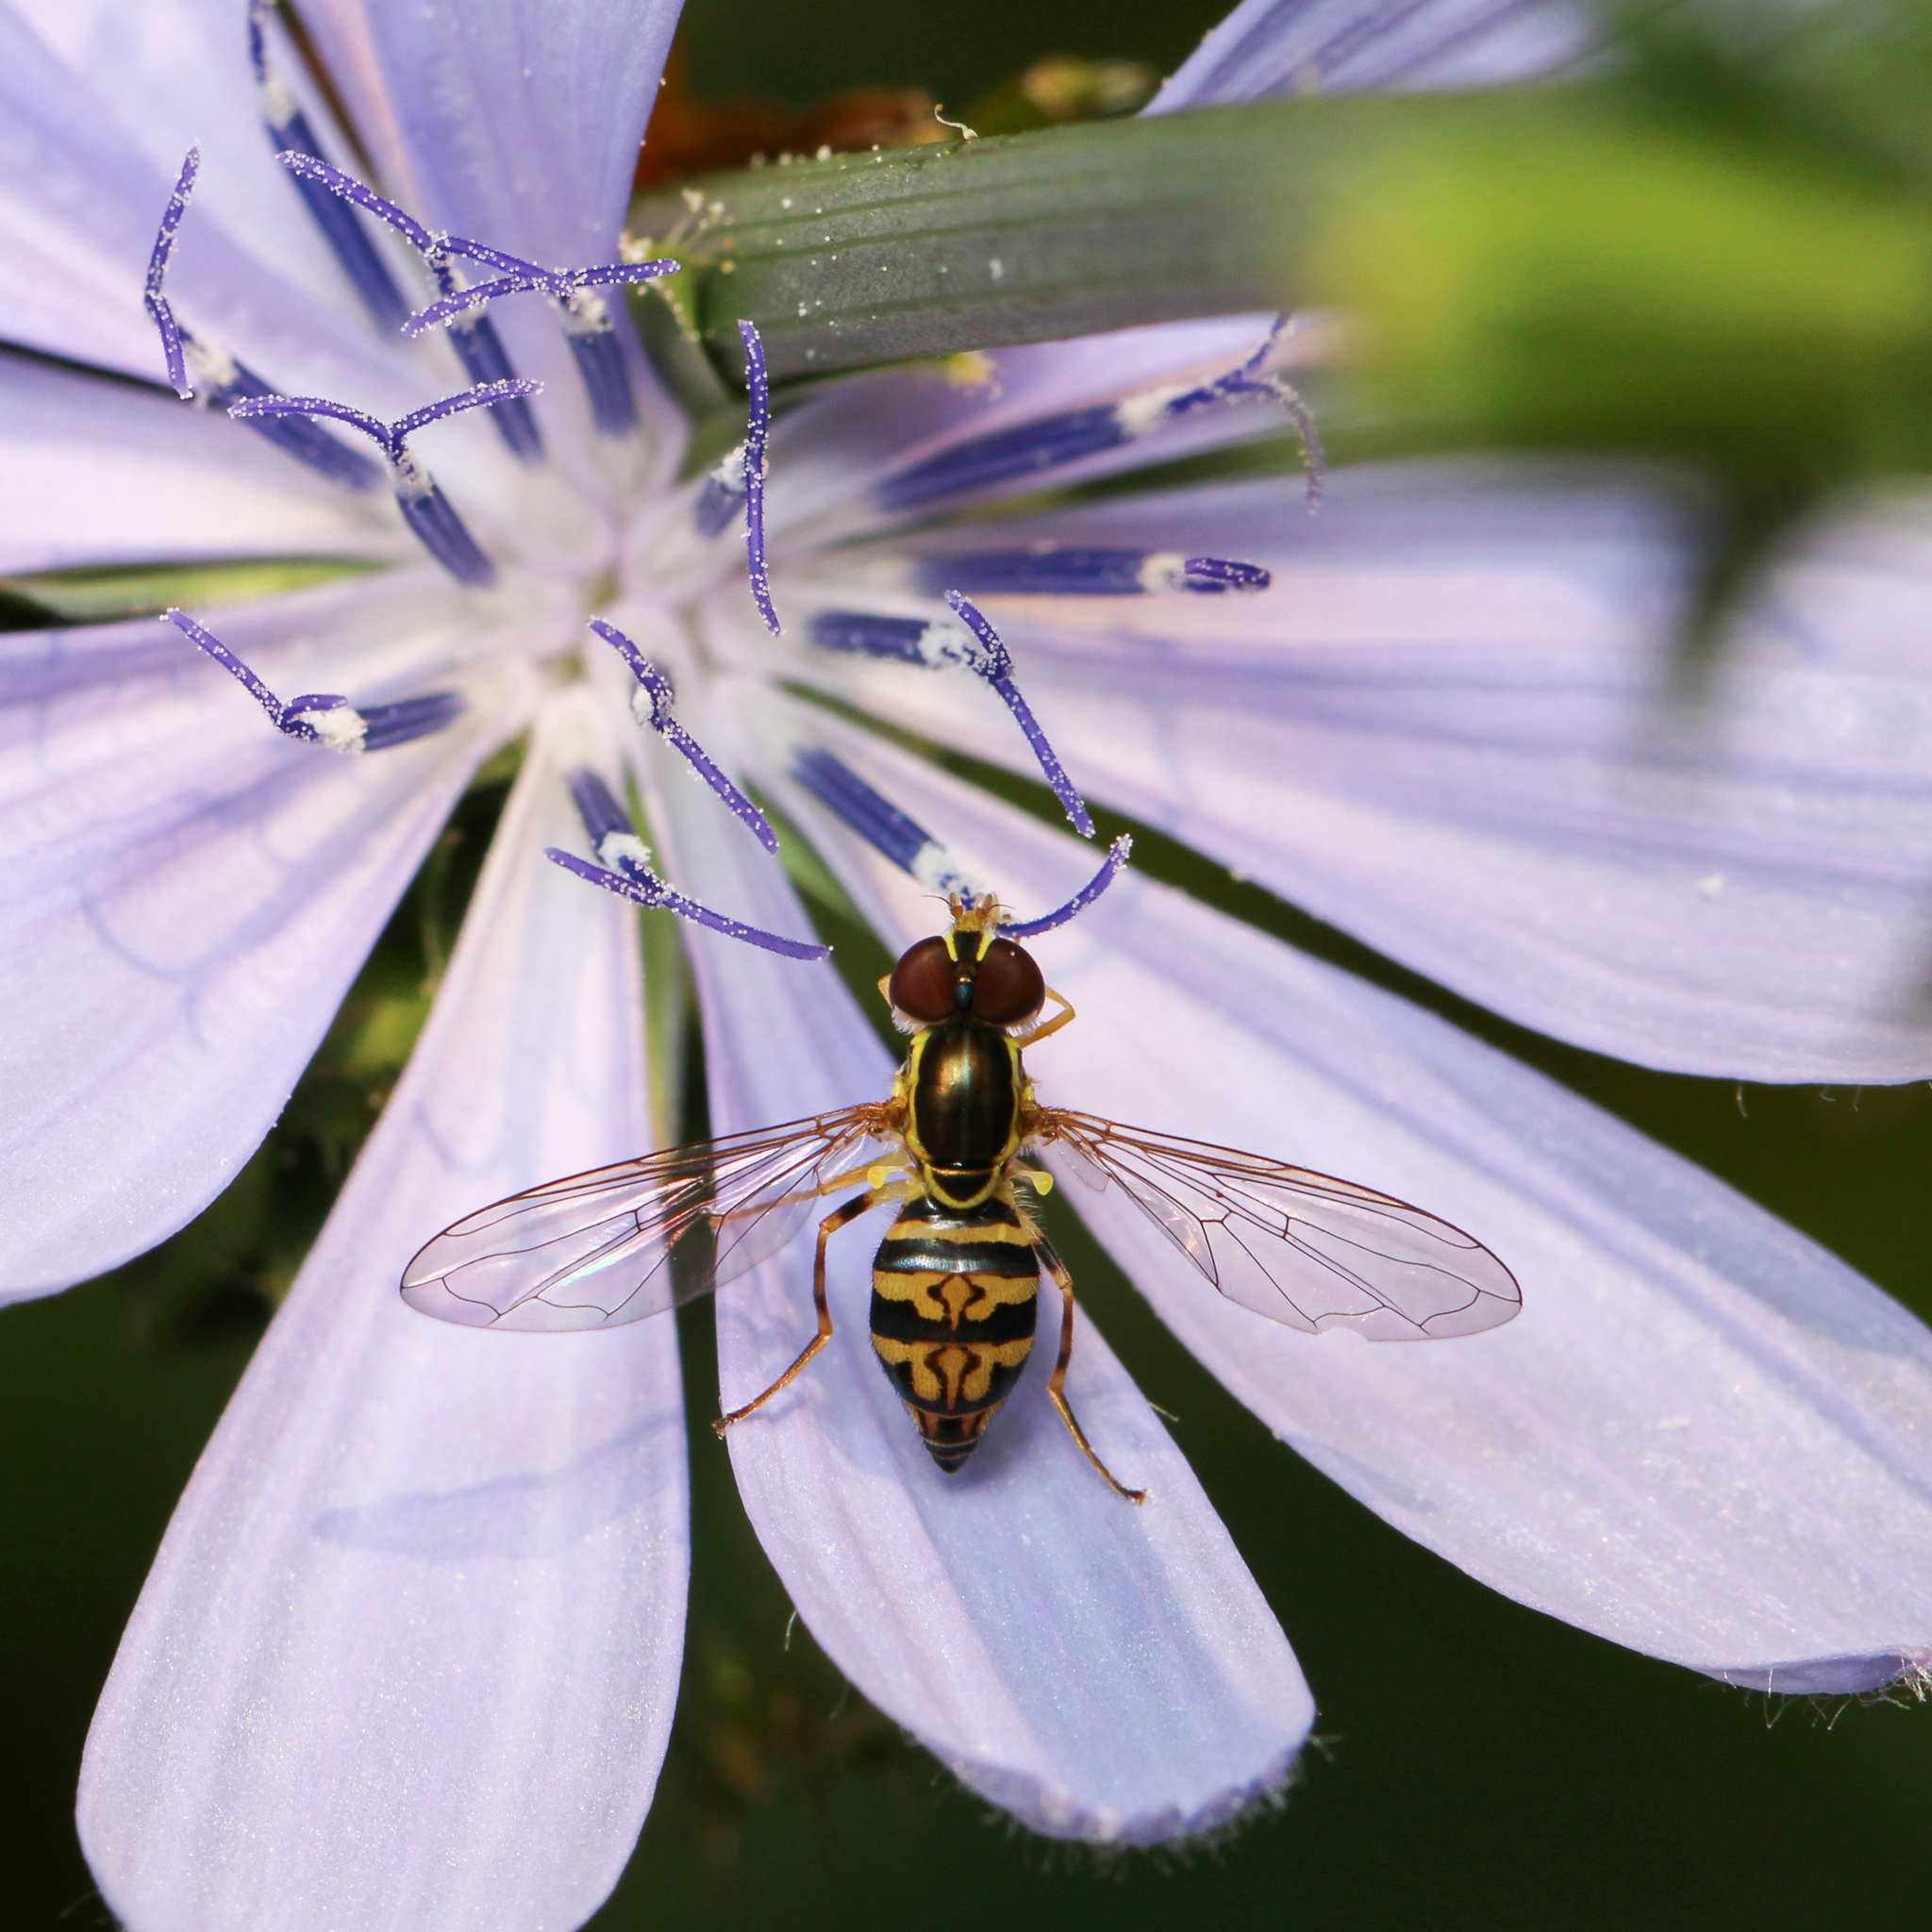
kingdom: Animalia
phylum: Arthropoda
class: Insecta
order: Diptera
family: Syrphidae
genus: Toxomerus
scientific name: Toxomerus geminatus
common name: Eastern calligrapher
